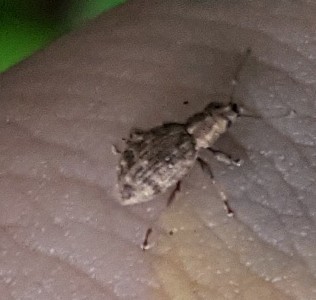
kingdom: Animalia
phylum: Arthropoda
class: Insecta
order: Coleoptera
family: Curculionidae
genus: Sciaphilus
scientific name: Sciaphilus asperatus
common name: Weevil
